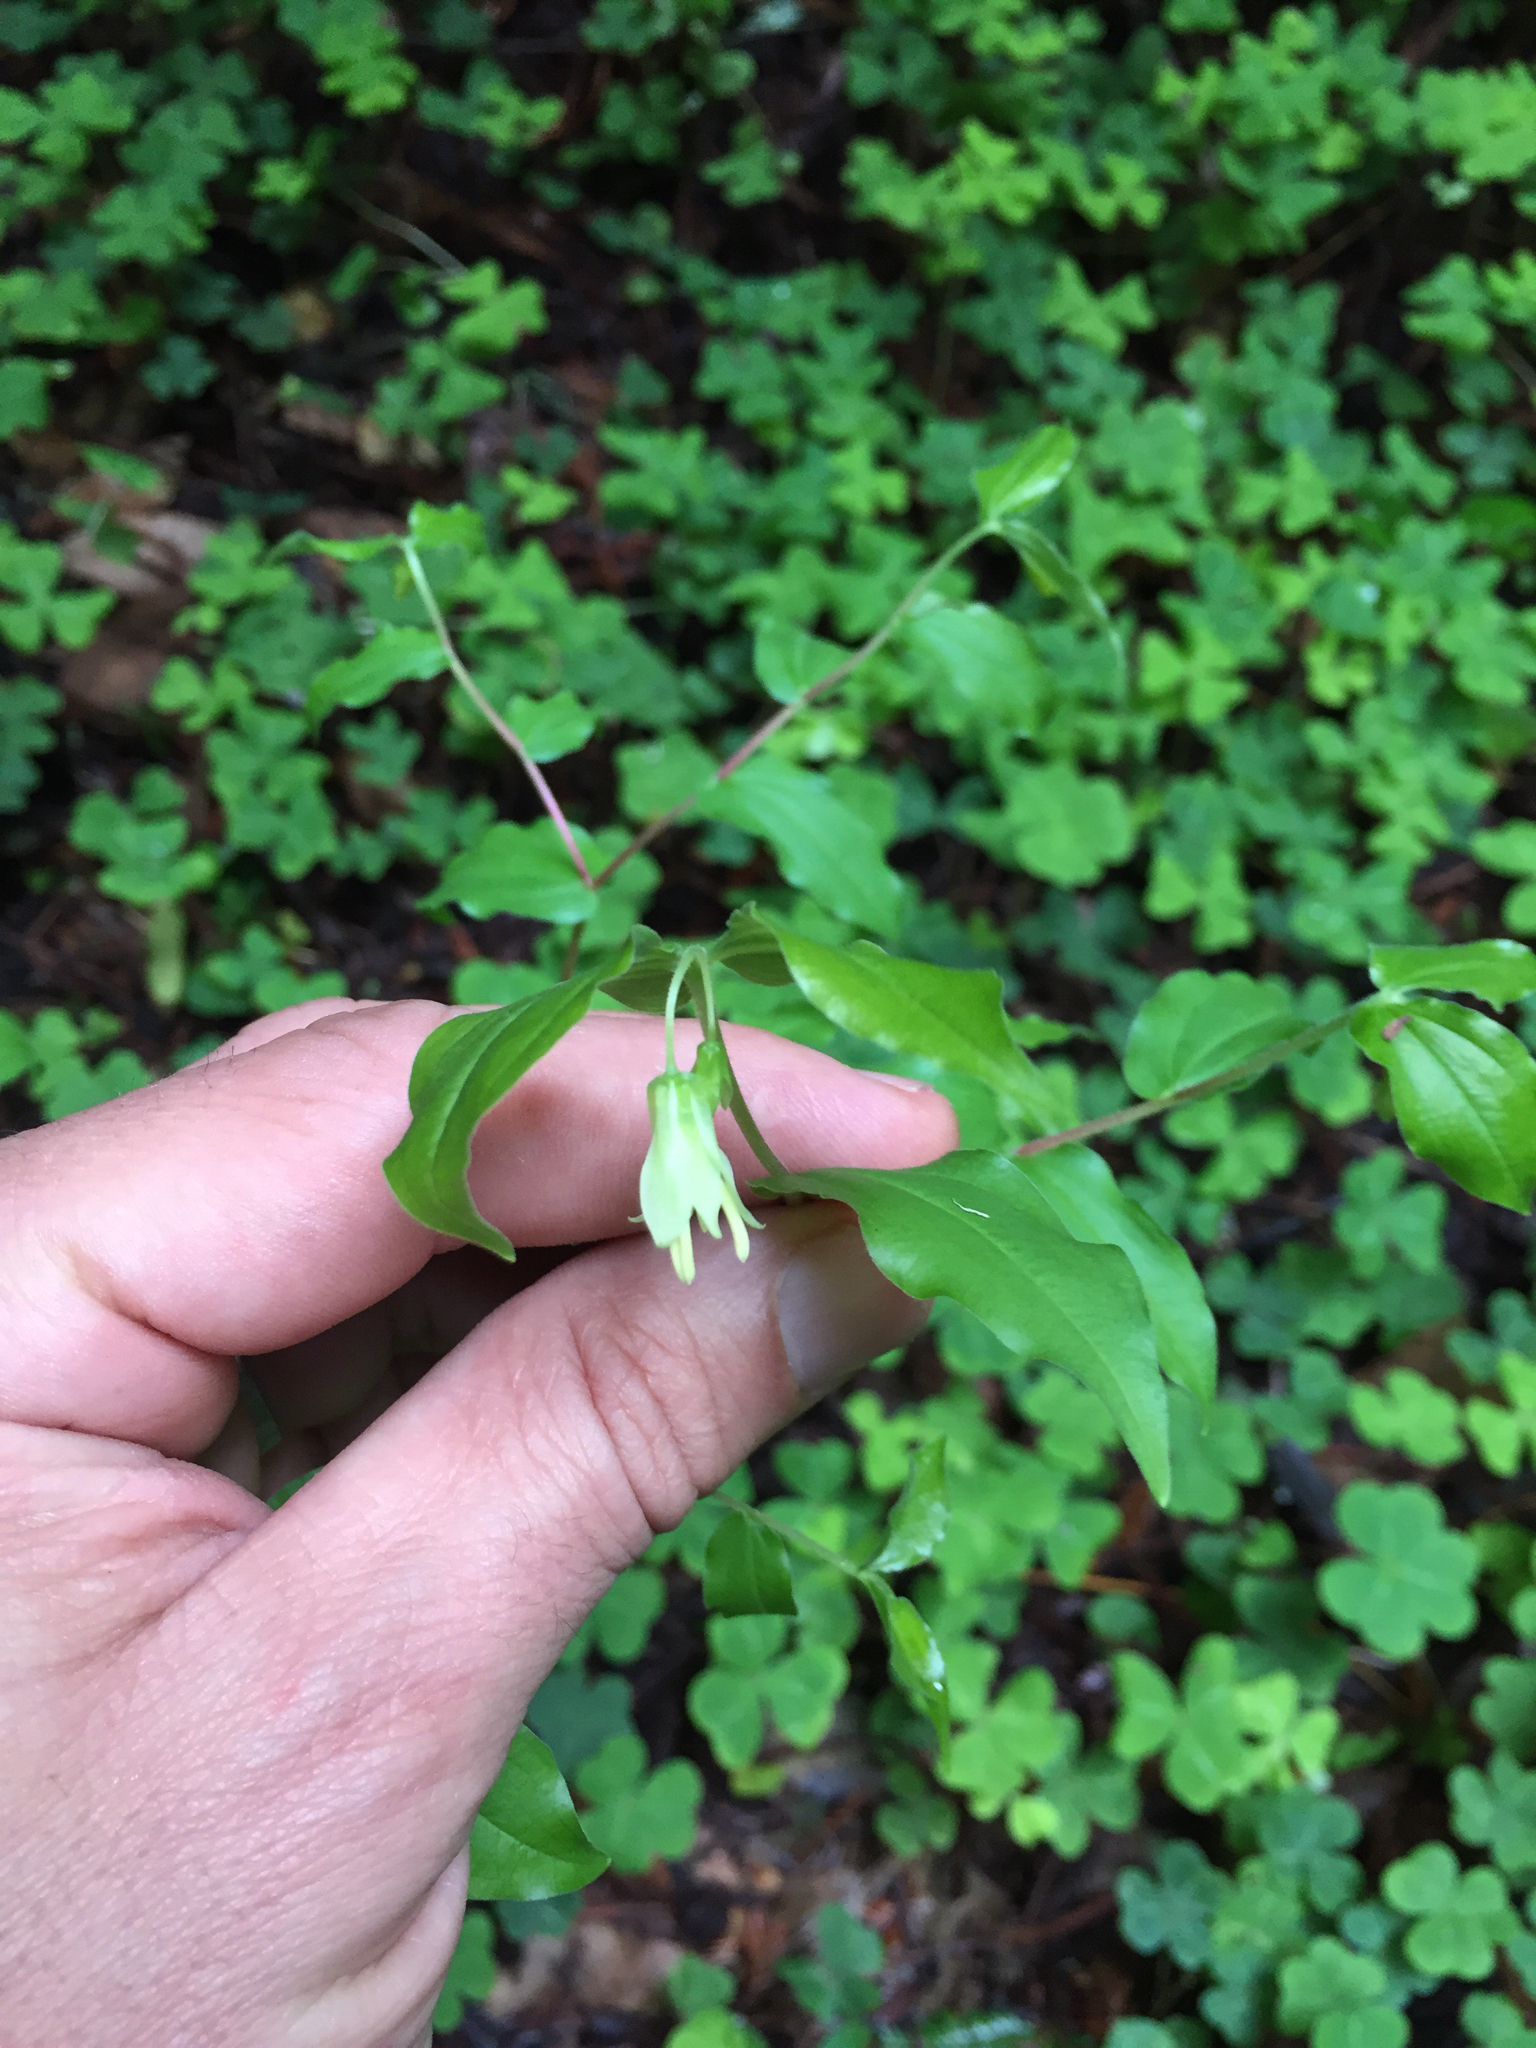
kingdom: Plantae
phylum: Tracheophyta
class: Liliopsida
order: Liliales
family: Liliaceae
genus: Prosartes
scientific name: Prosartes hookeri
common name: Fairy-bells
